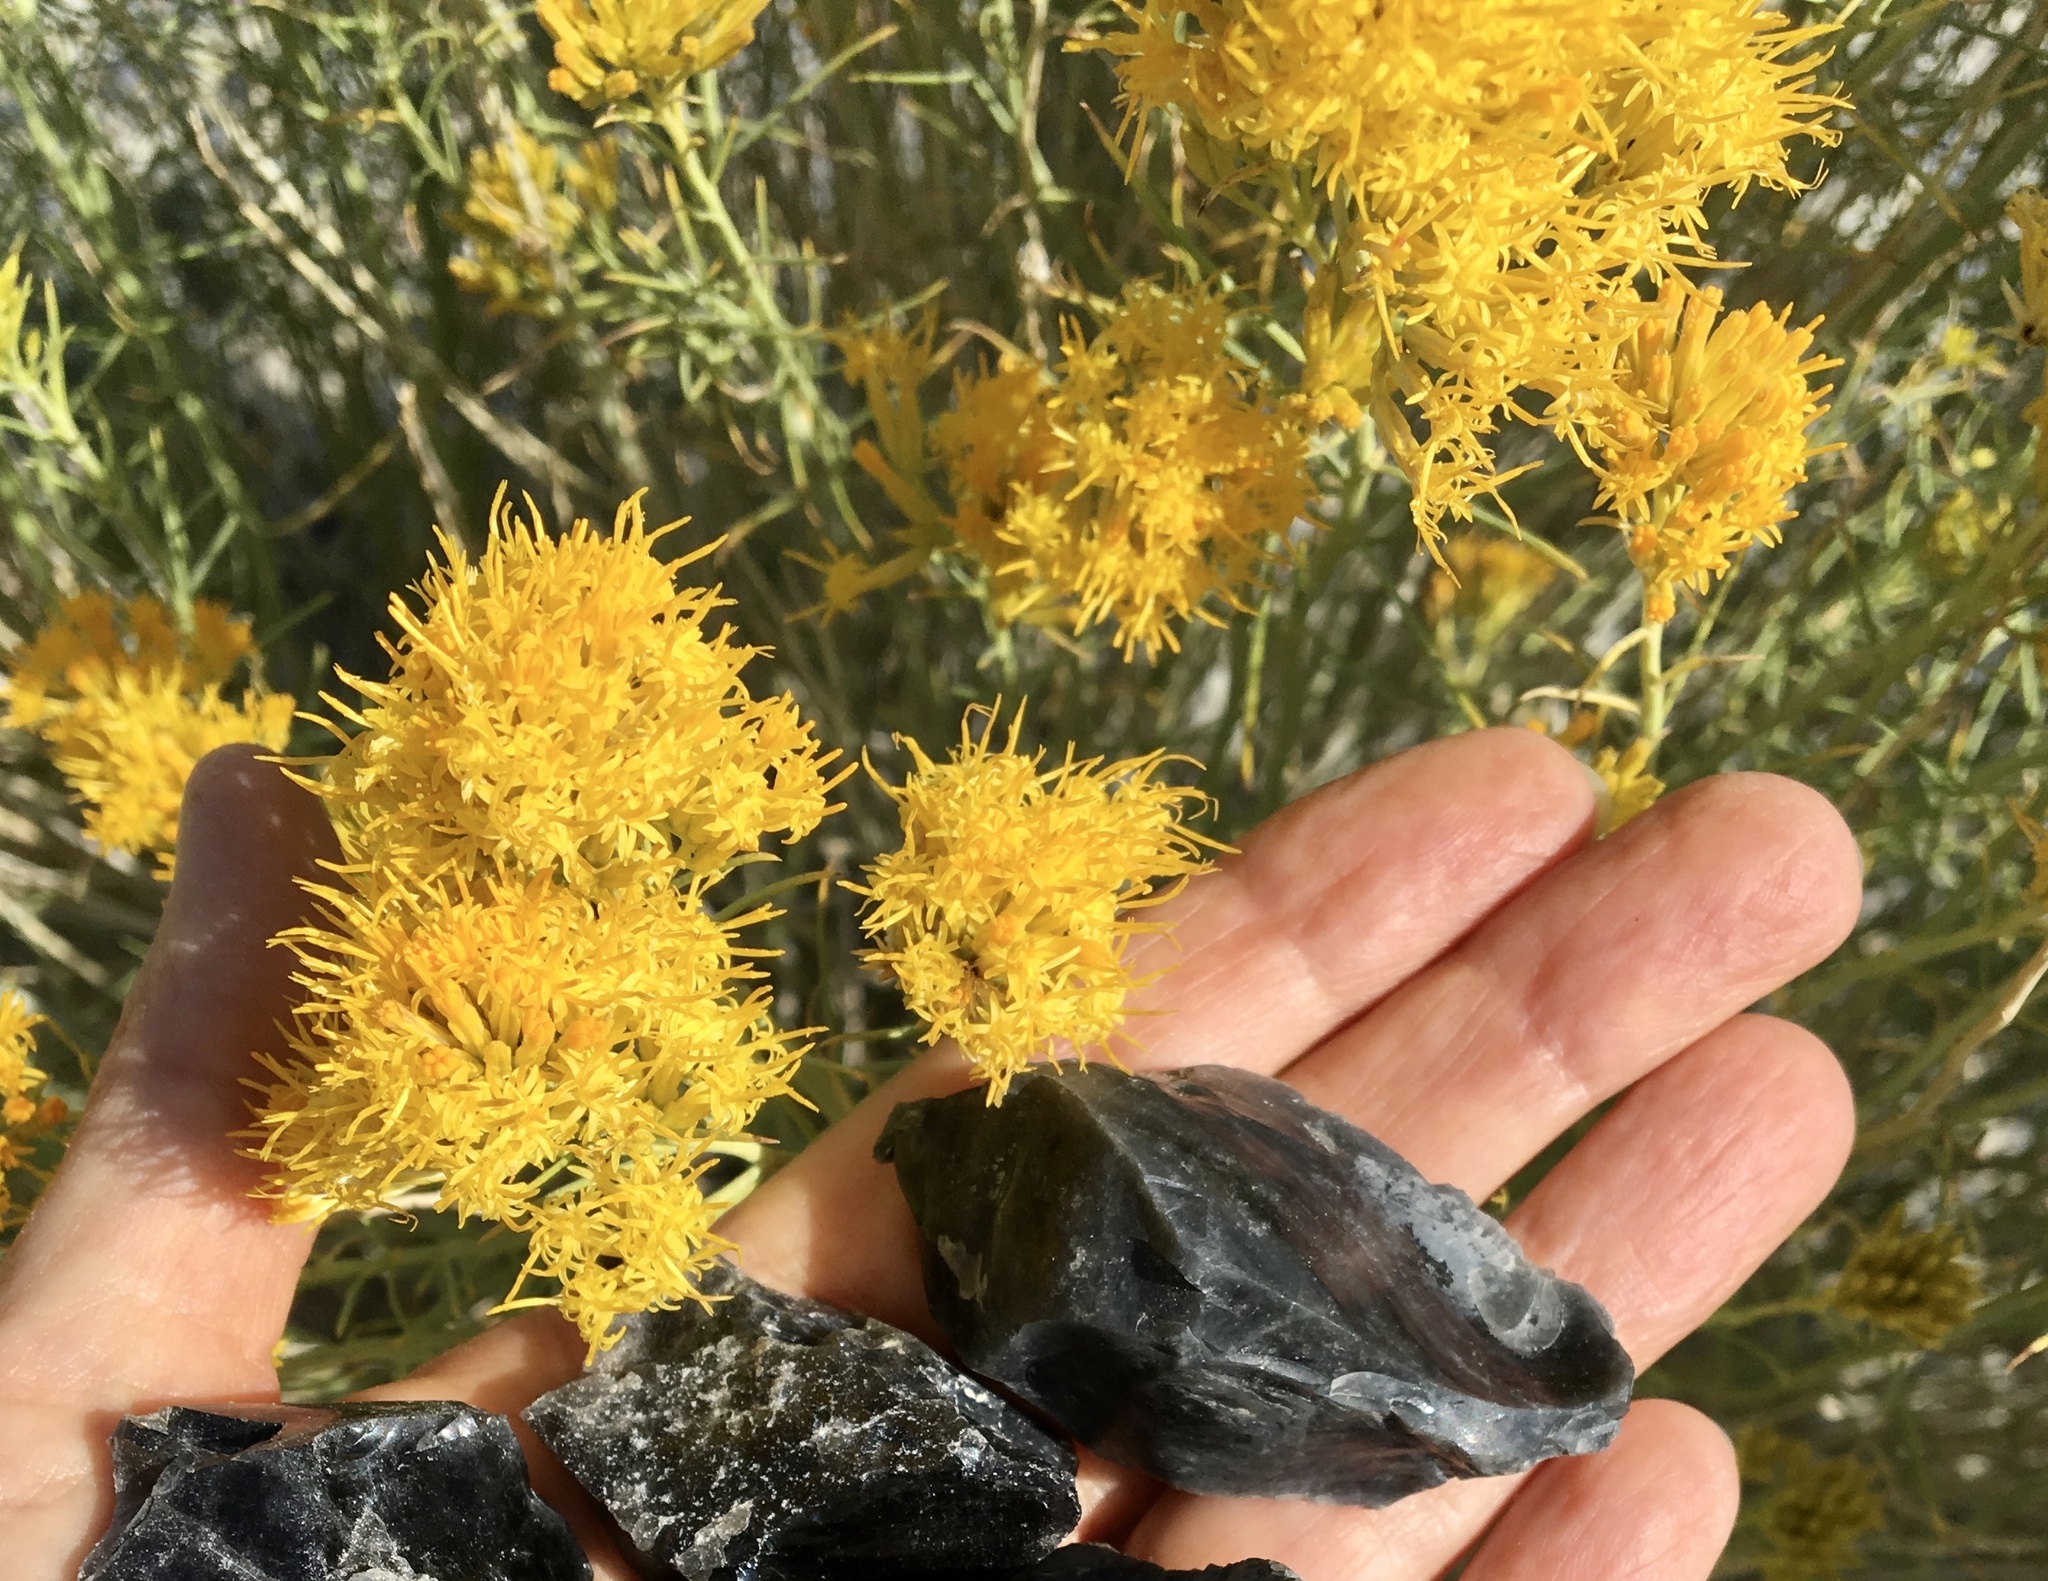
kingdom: Plantae
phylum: Tracheophyta
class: Magnoliopsida
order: Asterales
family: Asteraceae
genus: Ericameria
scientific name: Ericameria nauseosa
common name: Rubber rabbitbrush
